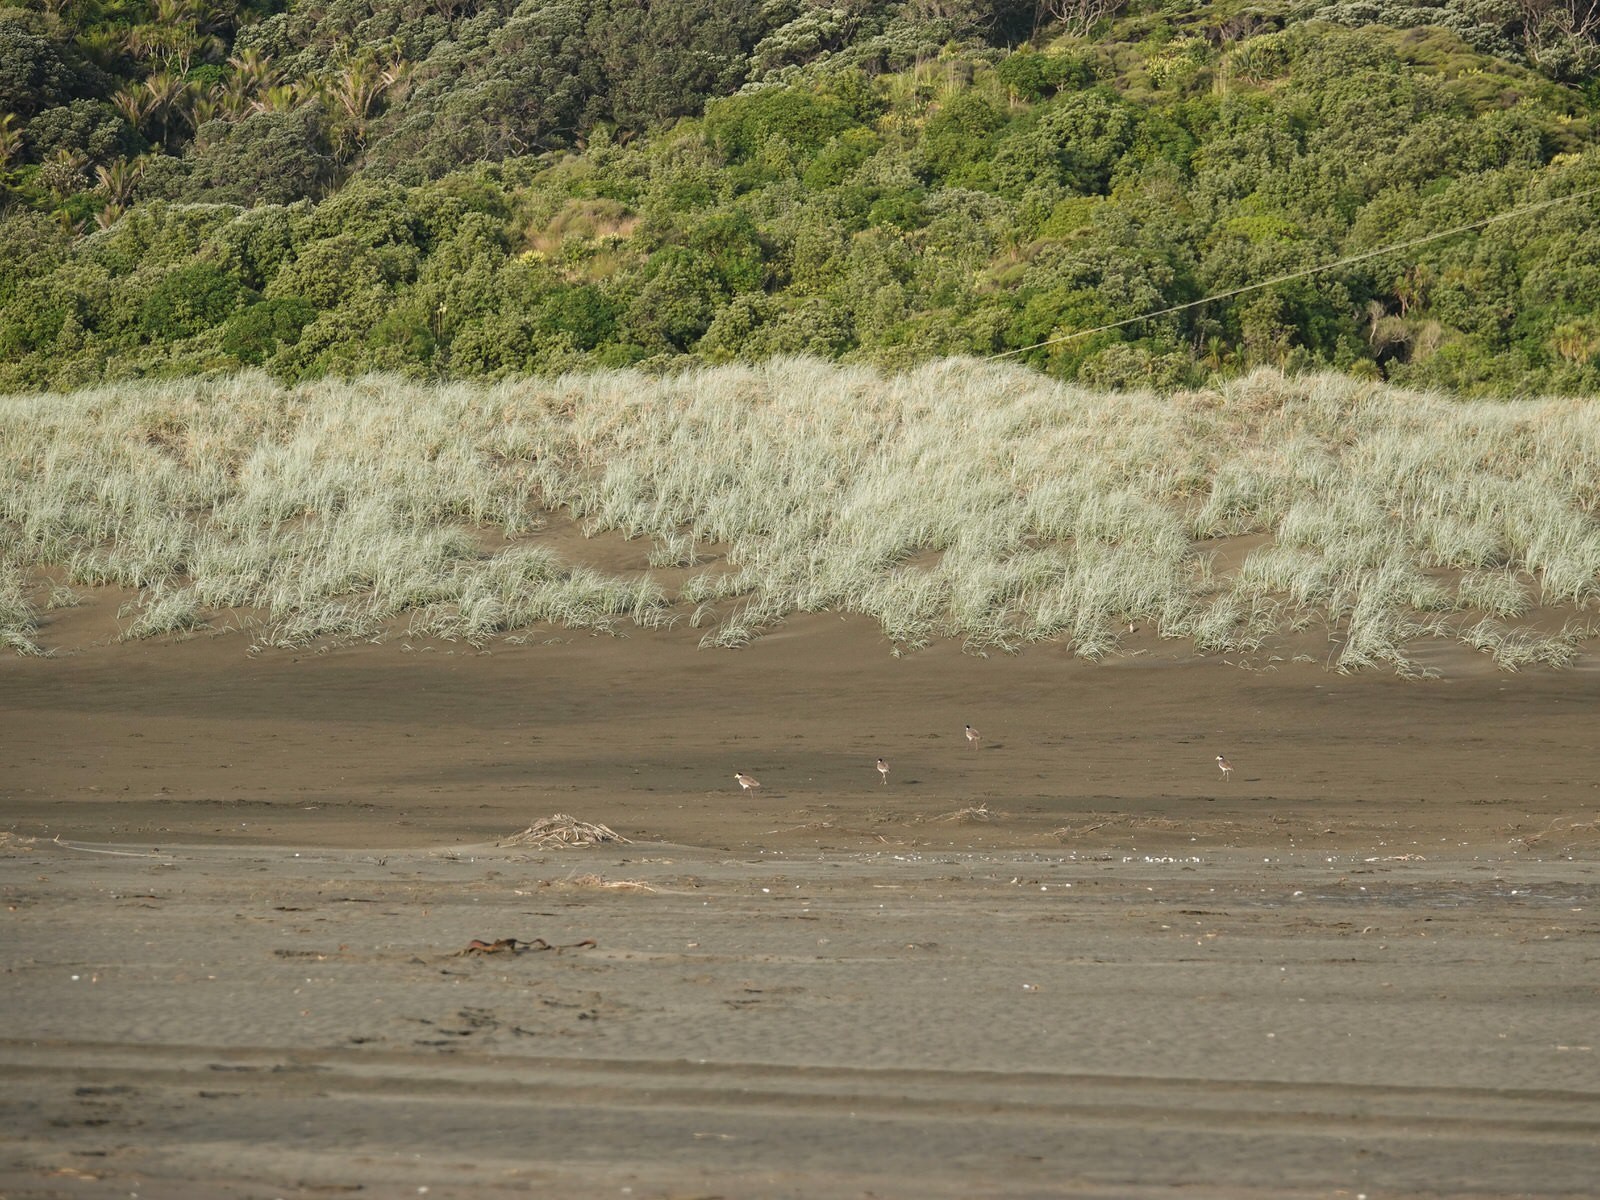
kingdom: Animalia
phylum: Chordata
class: Aves
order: Charadriiformes
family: Charadriidae
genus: Vanellus
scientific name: Vanellus miles
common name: Masked lapwing
